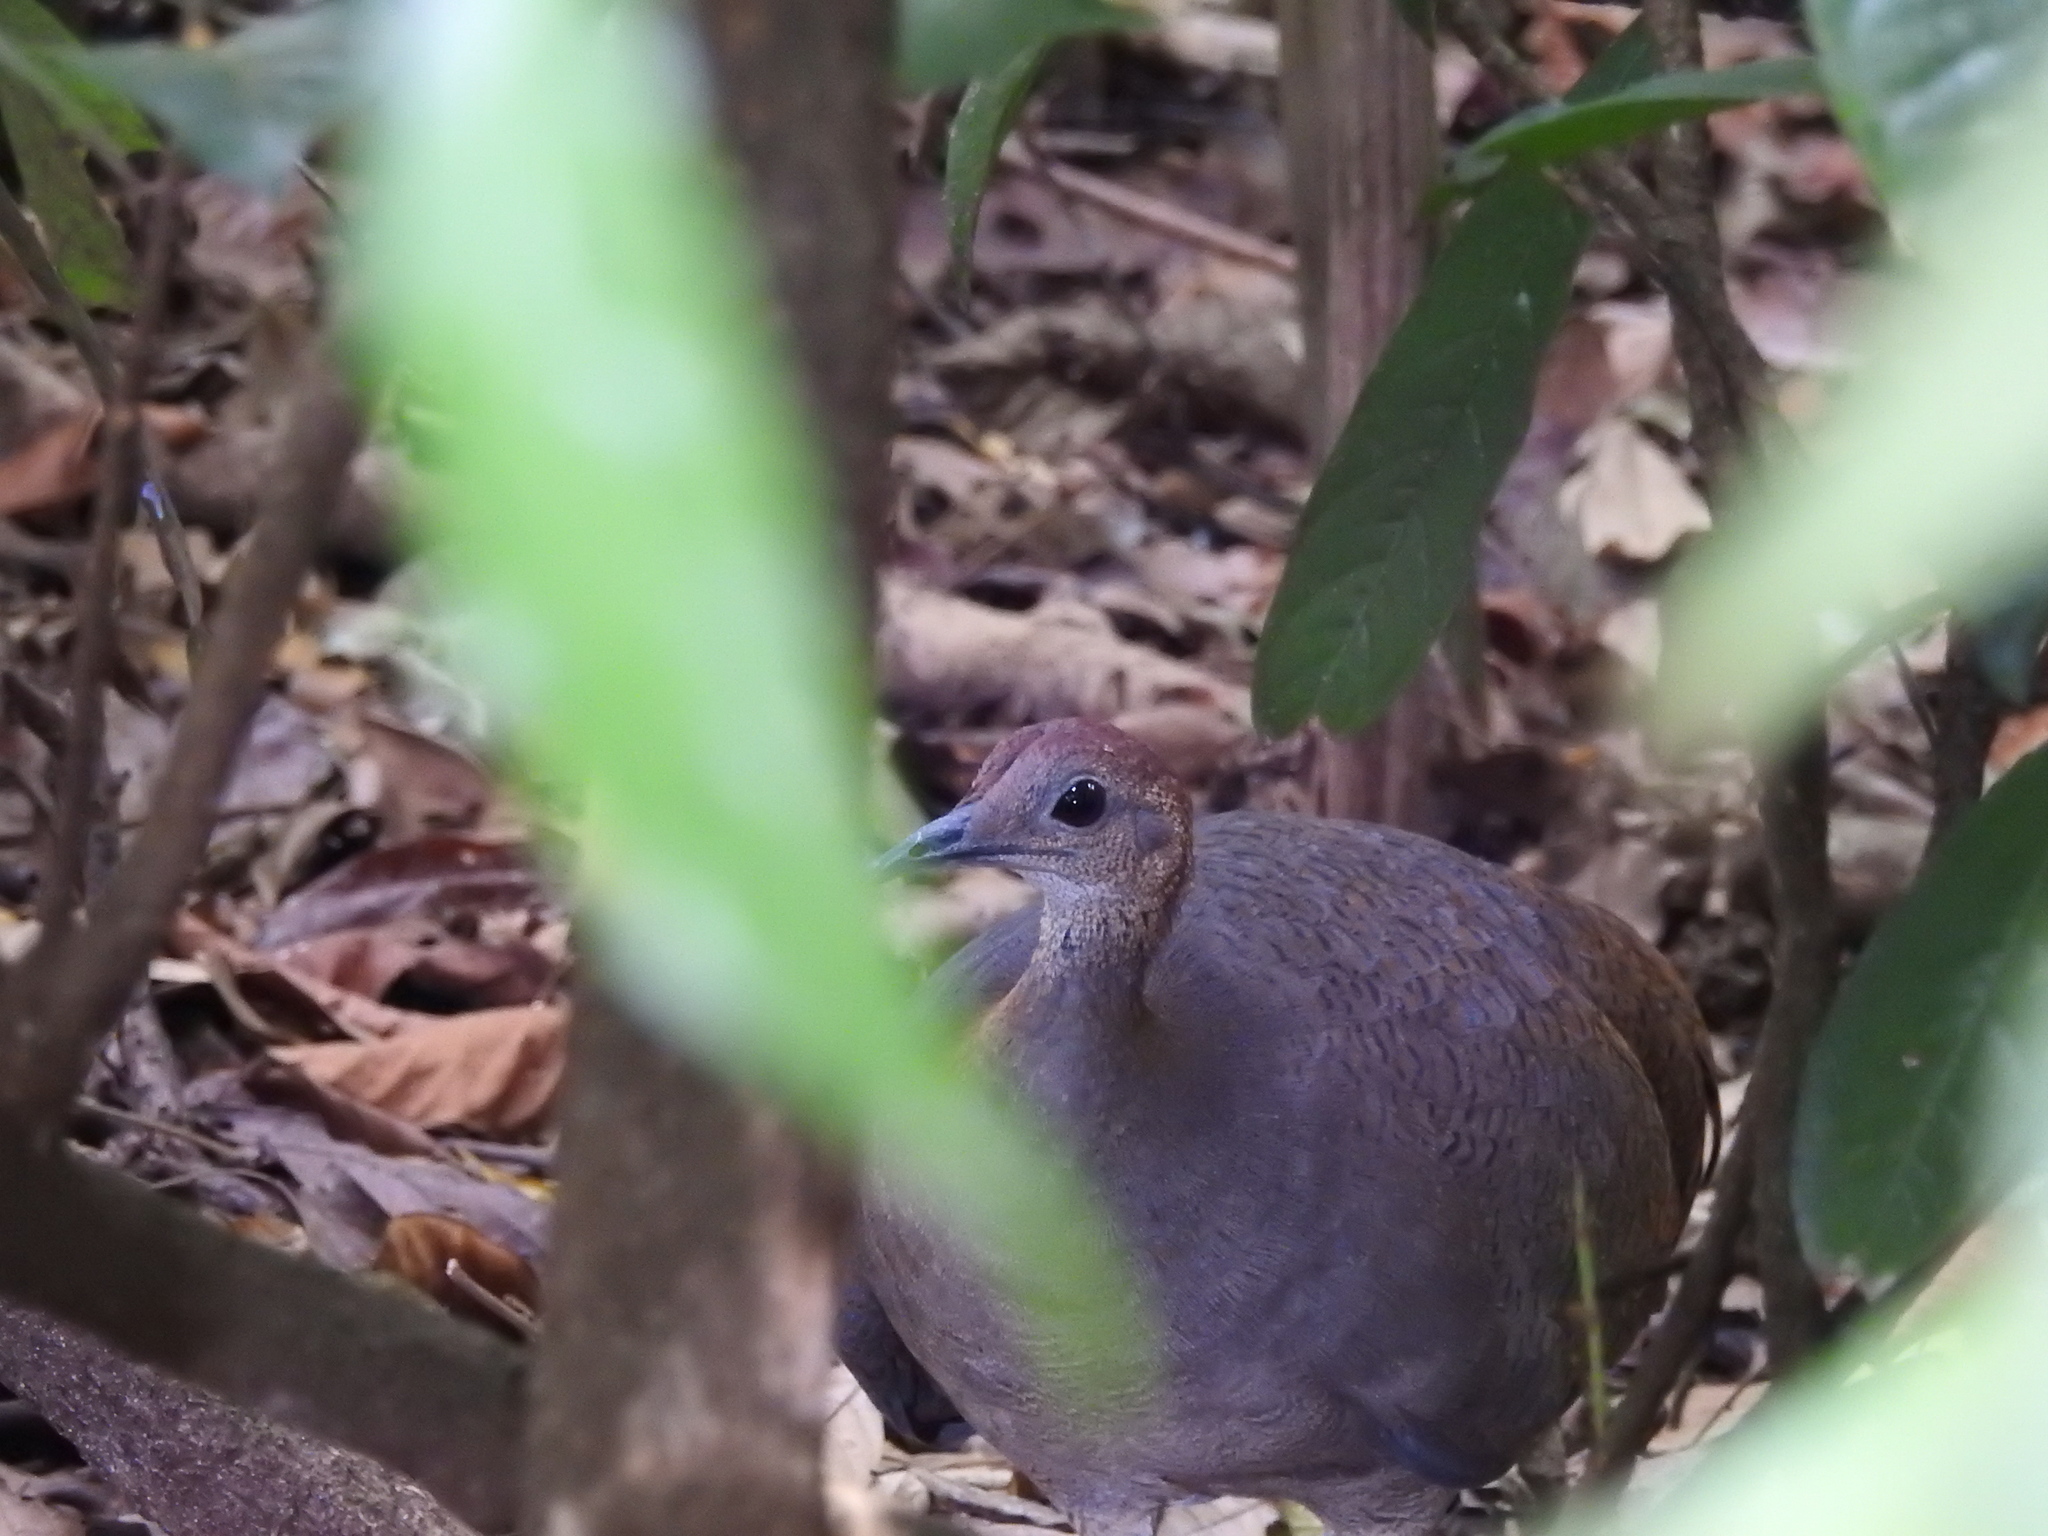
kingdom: Animalia
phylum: Chordata
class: Aves
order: Tinamiformes
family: Tinamidae
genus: Tinamus
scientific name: Tinamus major
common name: Great tinamou
